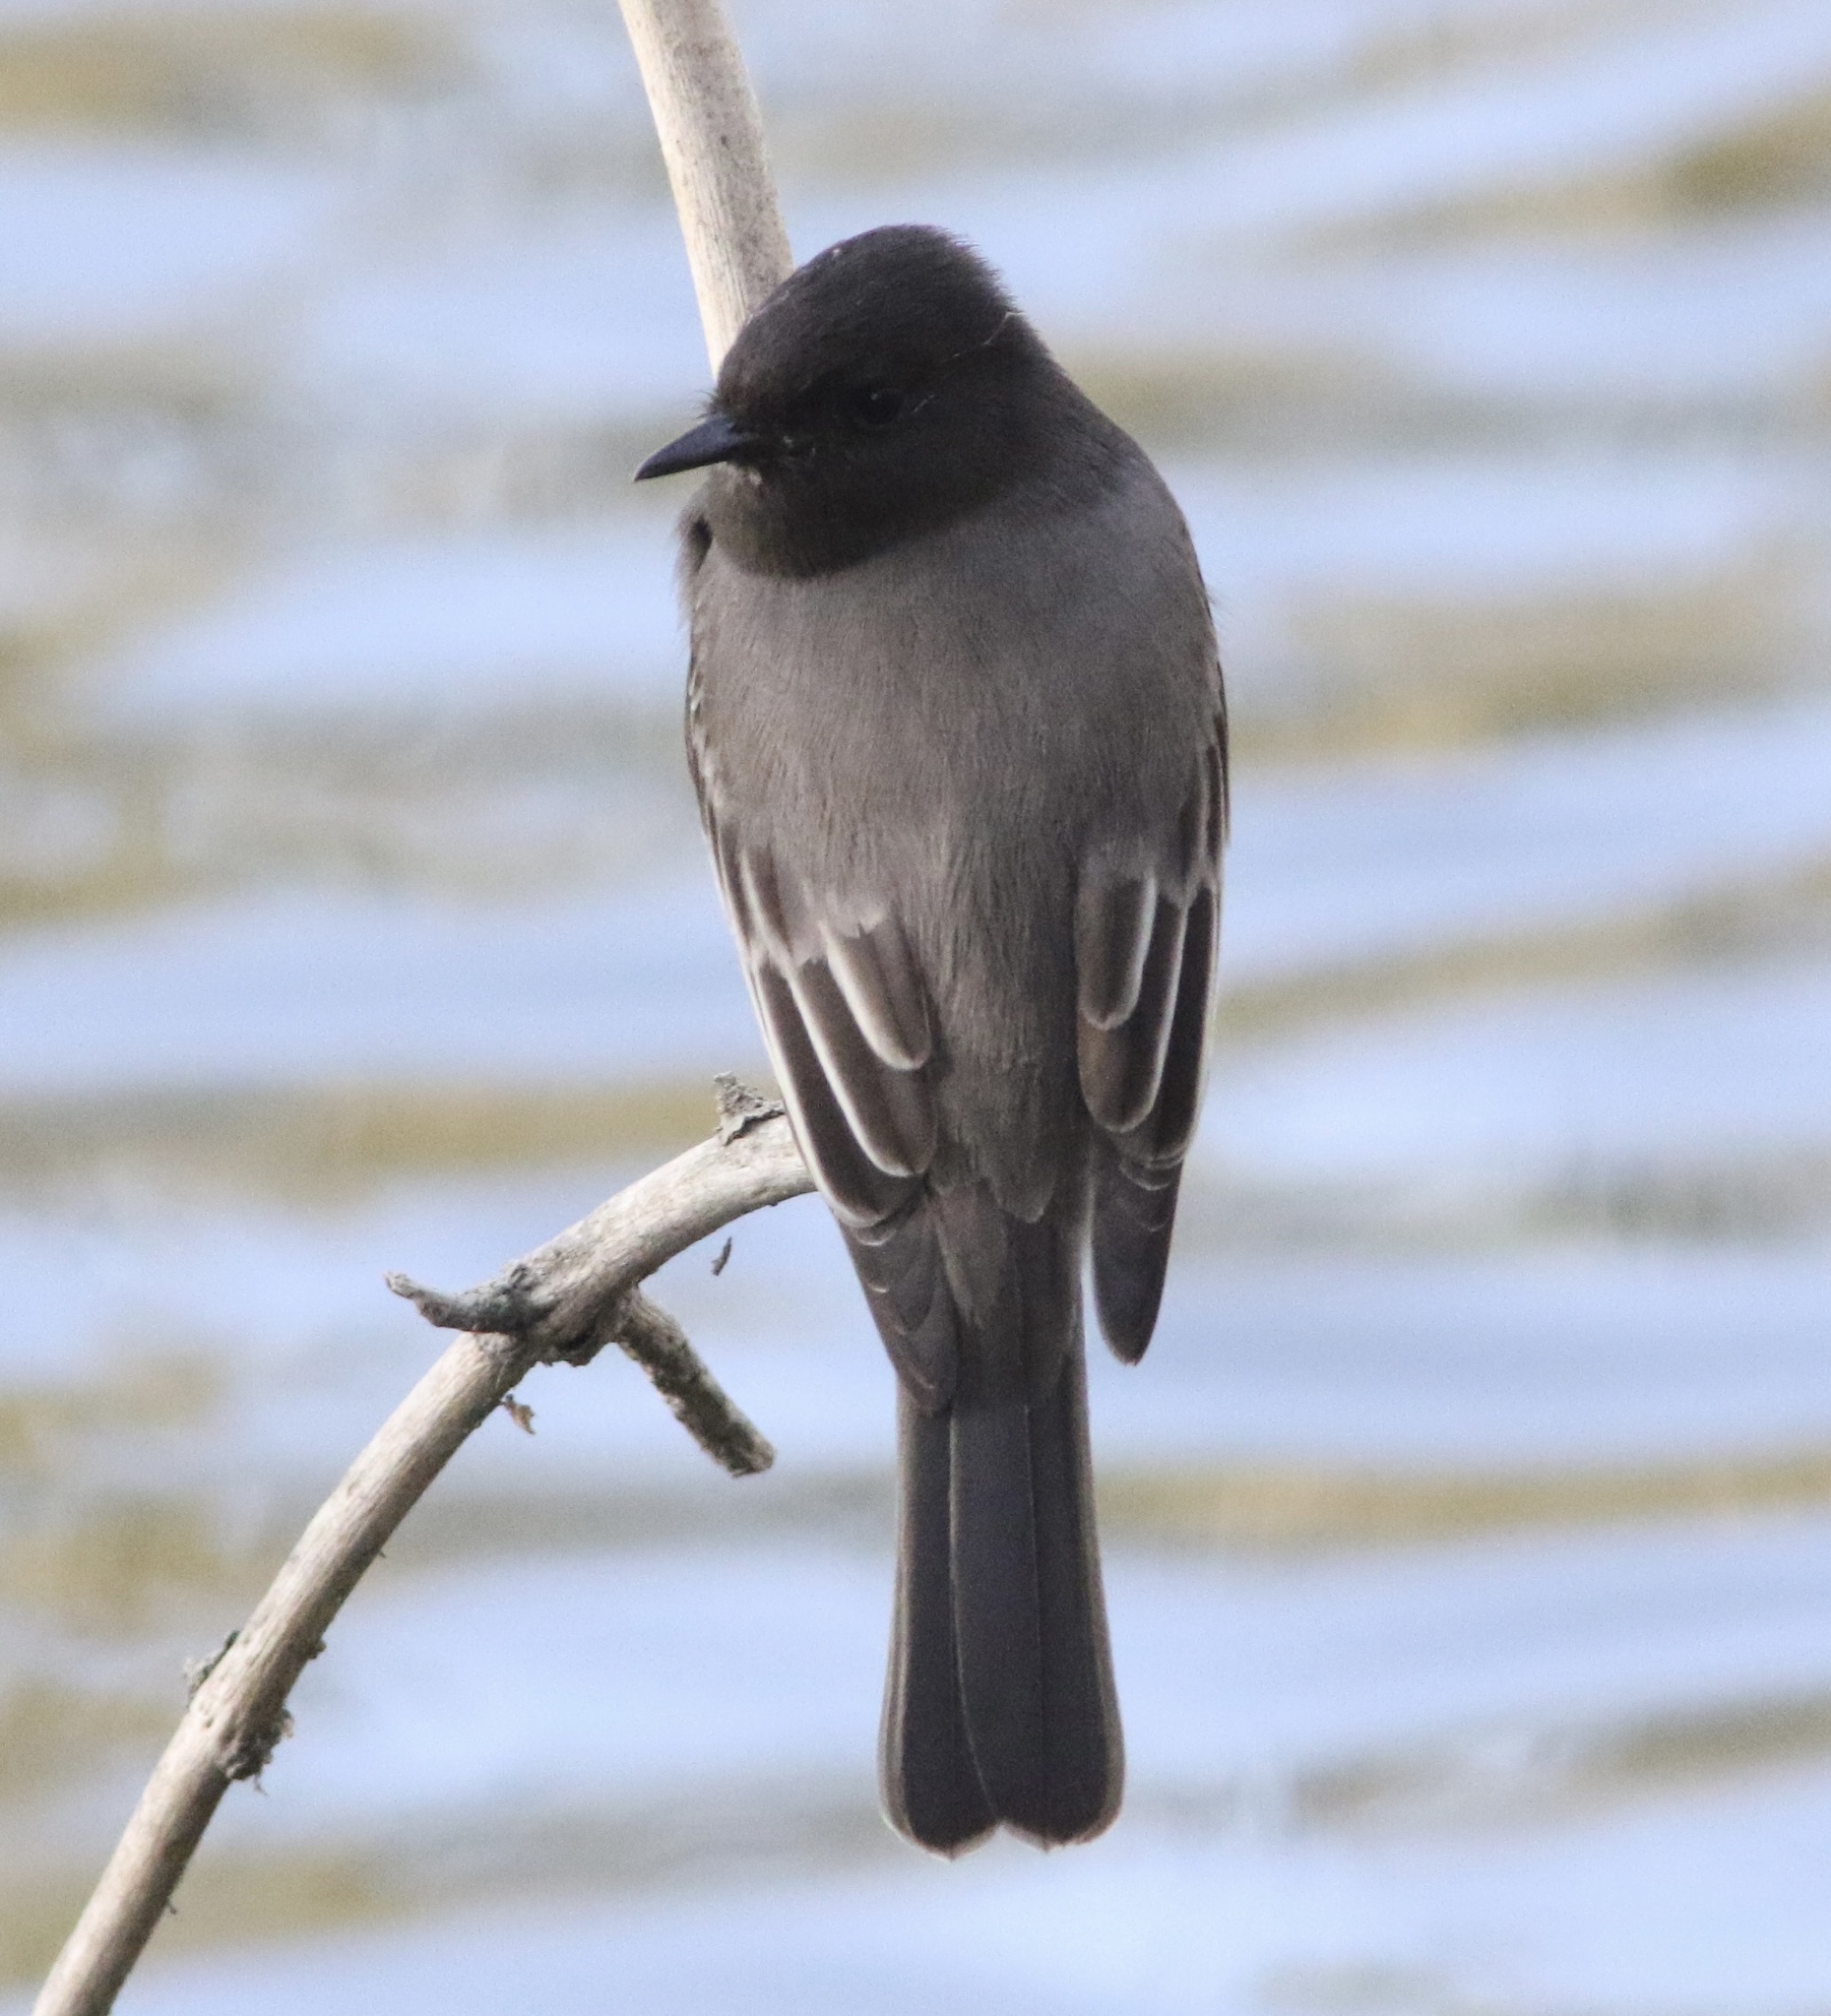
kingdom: Animalia
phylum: Chordata
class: Aves
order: Passeriformes
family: Tyrannidae
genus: Sayornis
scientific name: Sayornis nigricans
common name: Black phoebe
